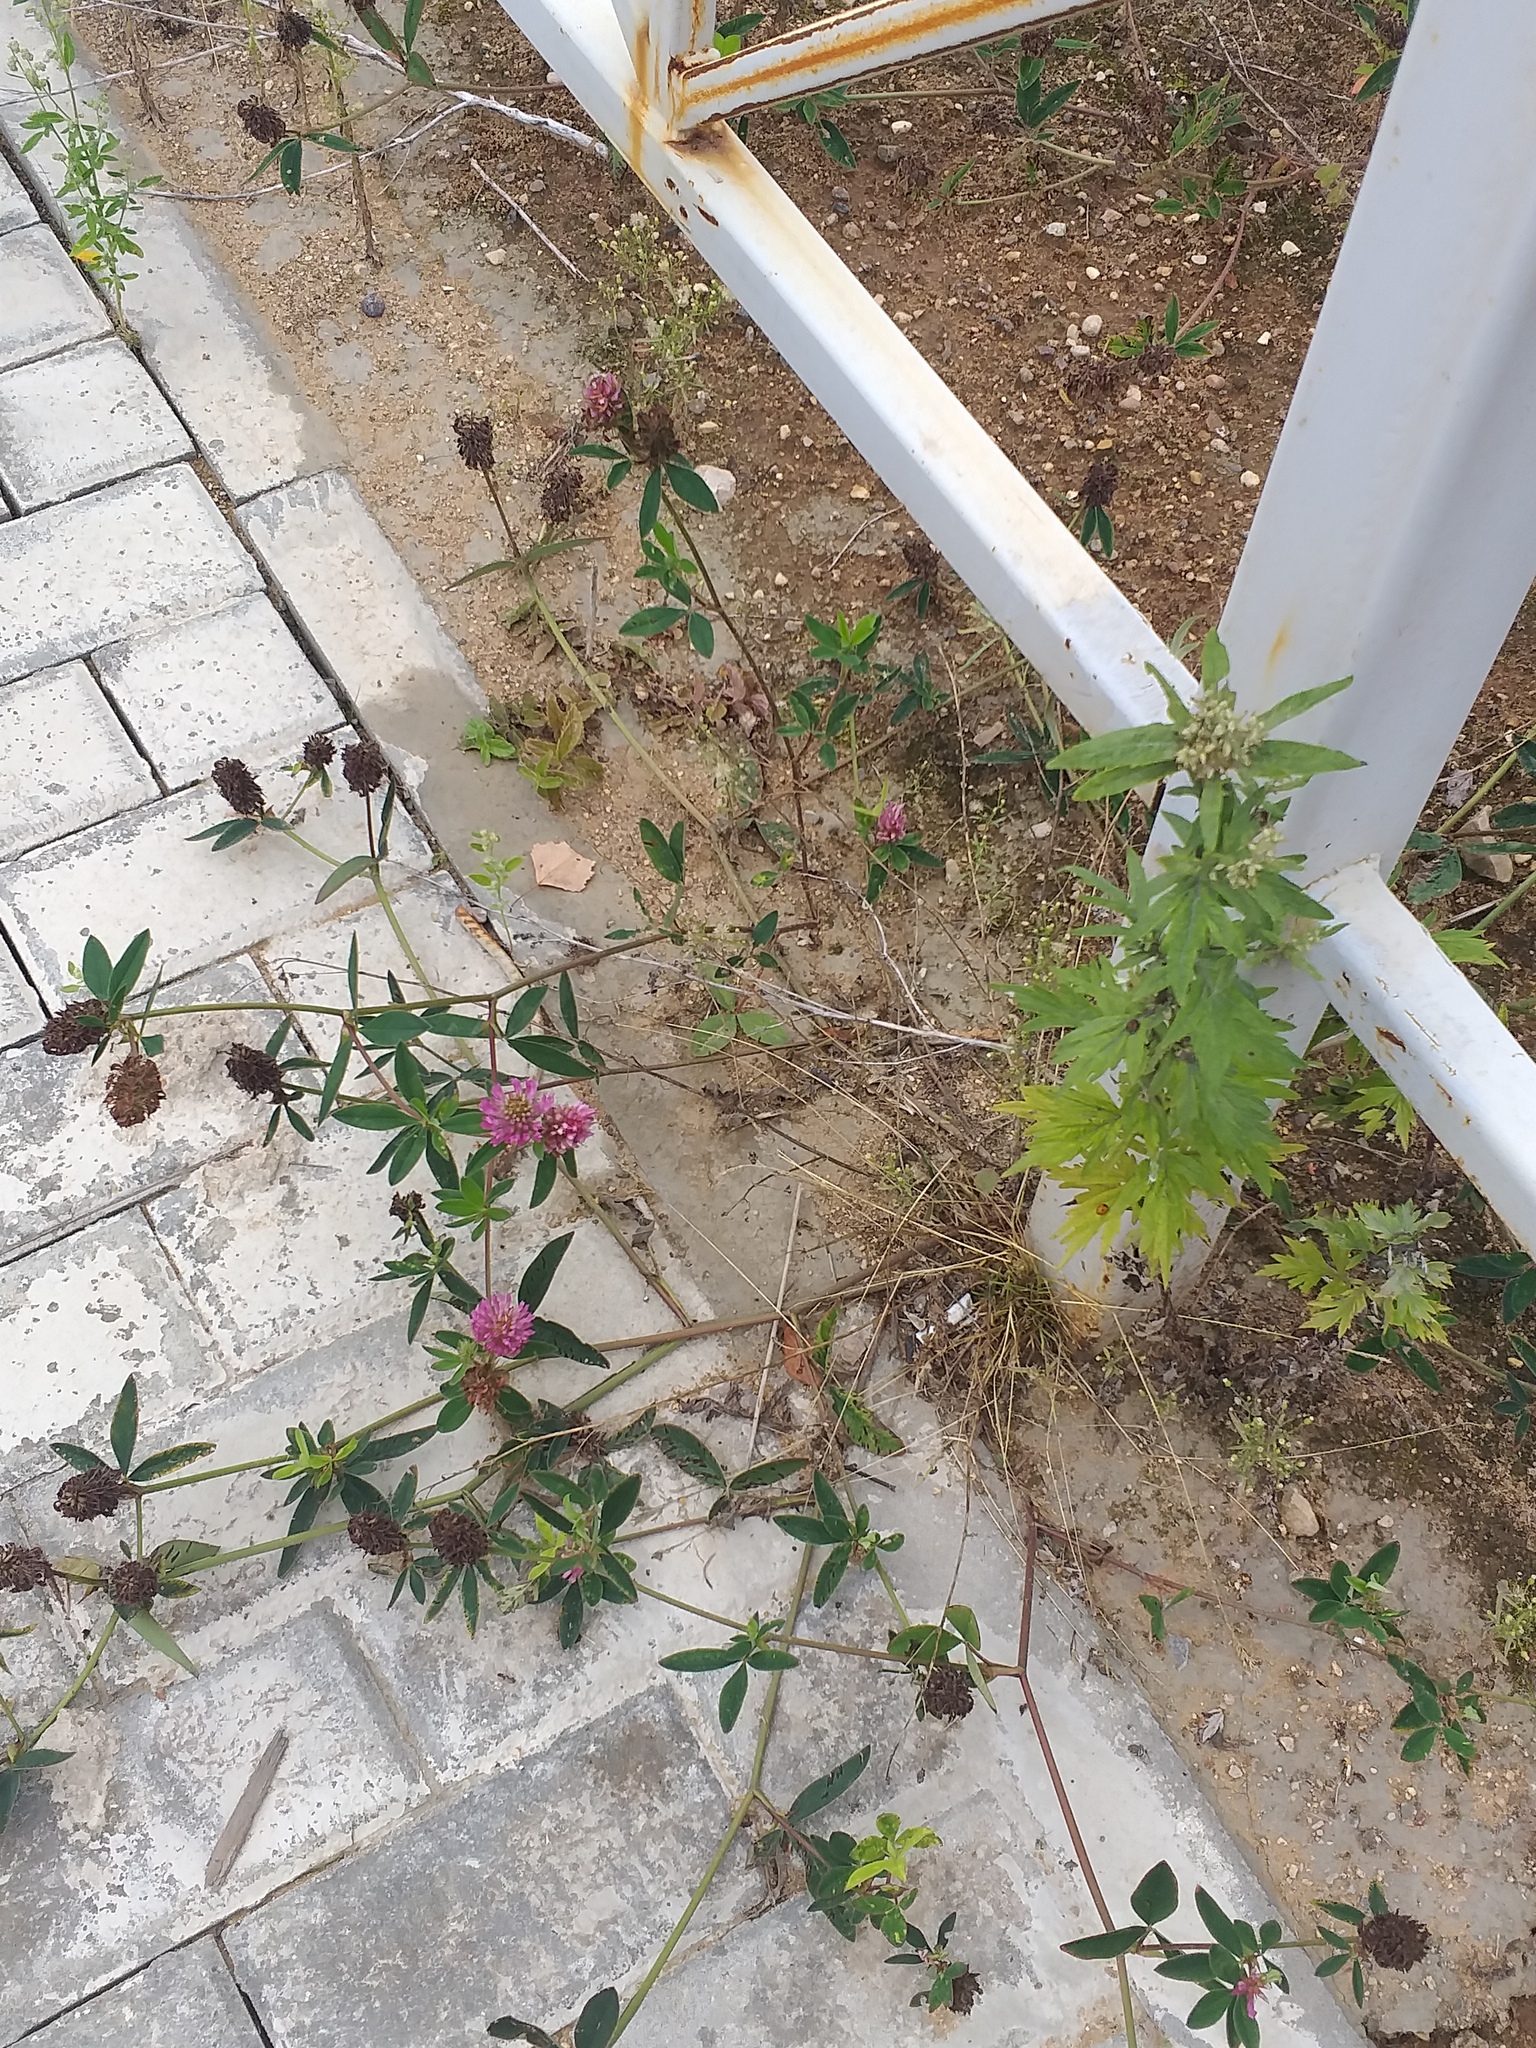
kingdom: Plantae
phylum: Tracheophyta
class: Magnoliopsida
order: Fabales
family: Fabaceae
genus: Trifolium
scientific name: Trifolium medium
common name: Zigzag clover
